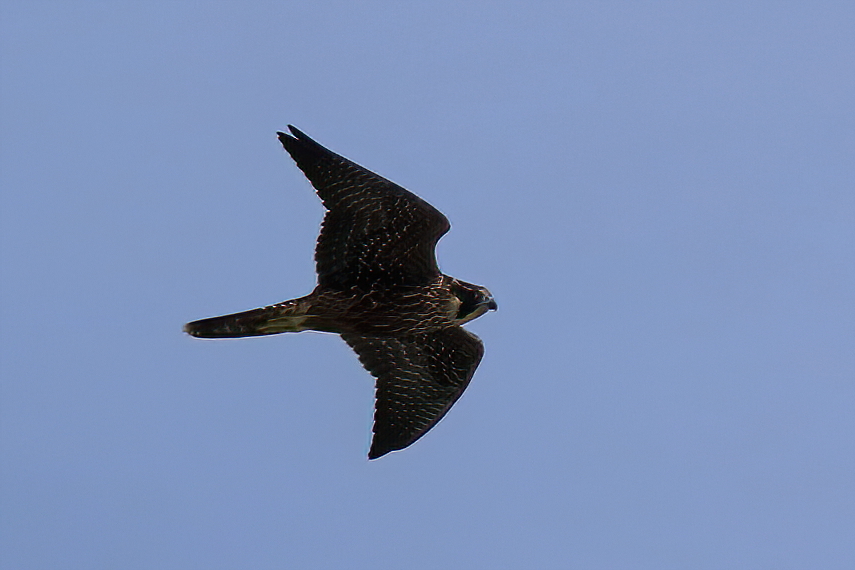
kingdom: Animalia
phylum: Chordata
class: Aves
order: Falconiformes
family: Falconidae
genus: Falco
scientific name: Falco peregrinus
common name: Peregrine falcon
